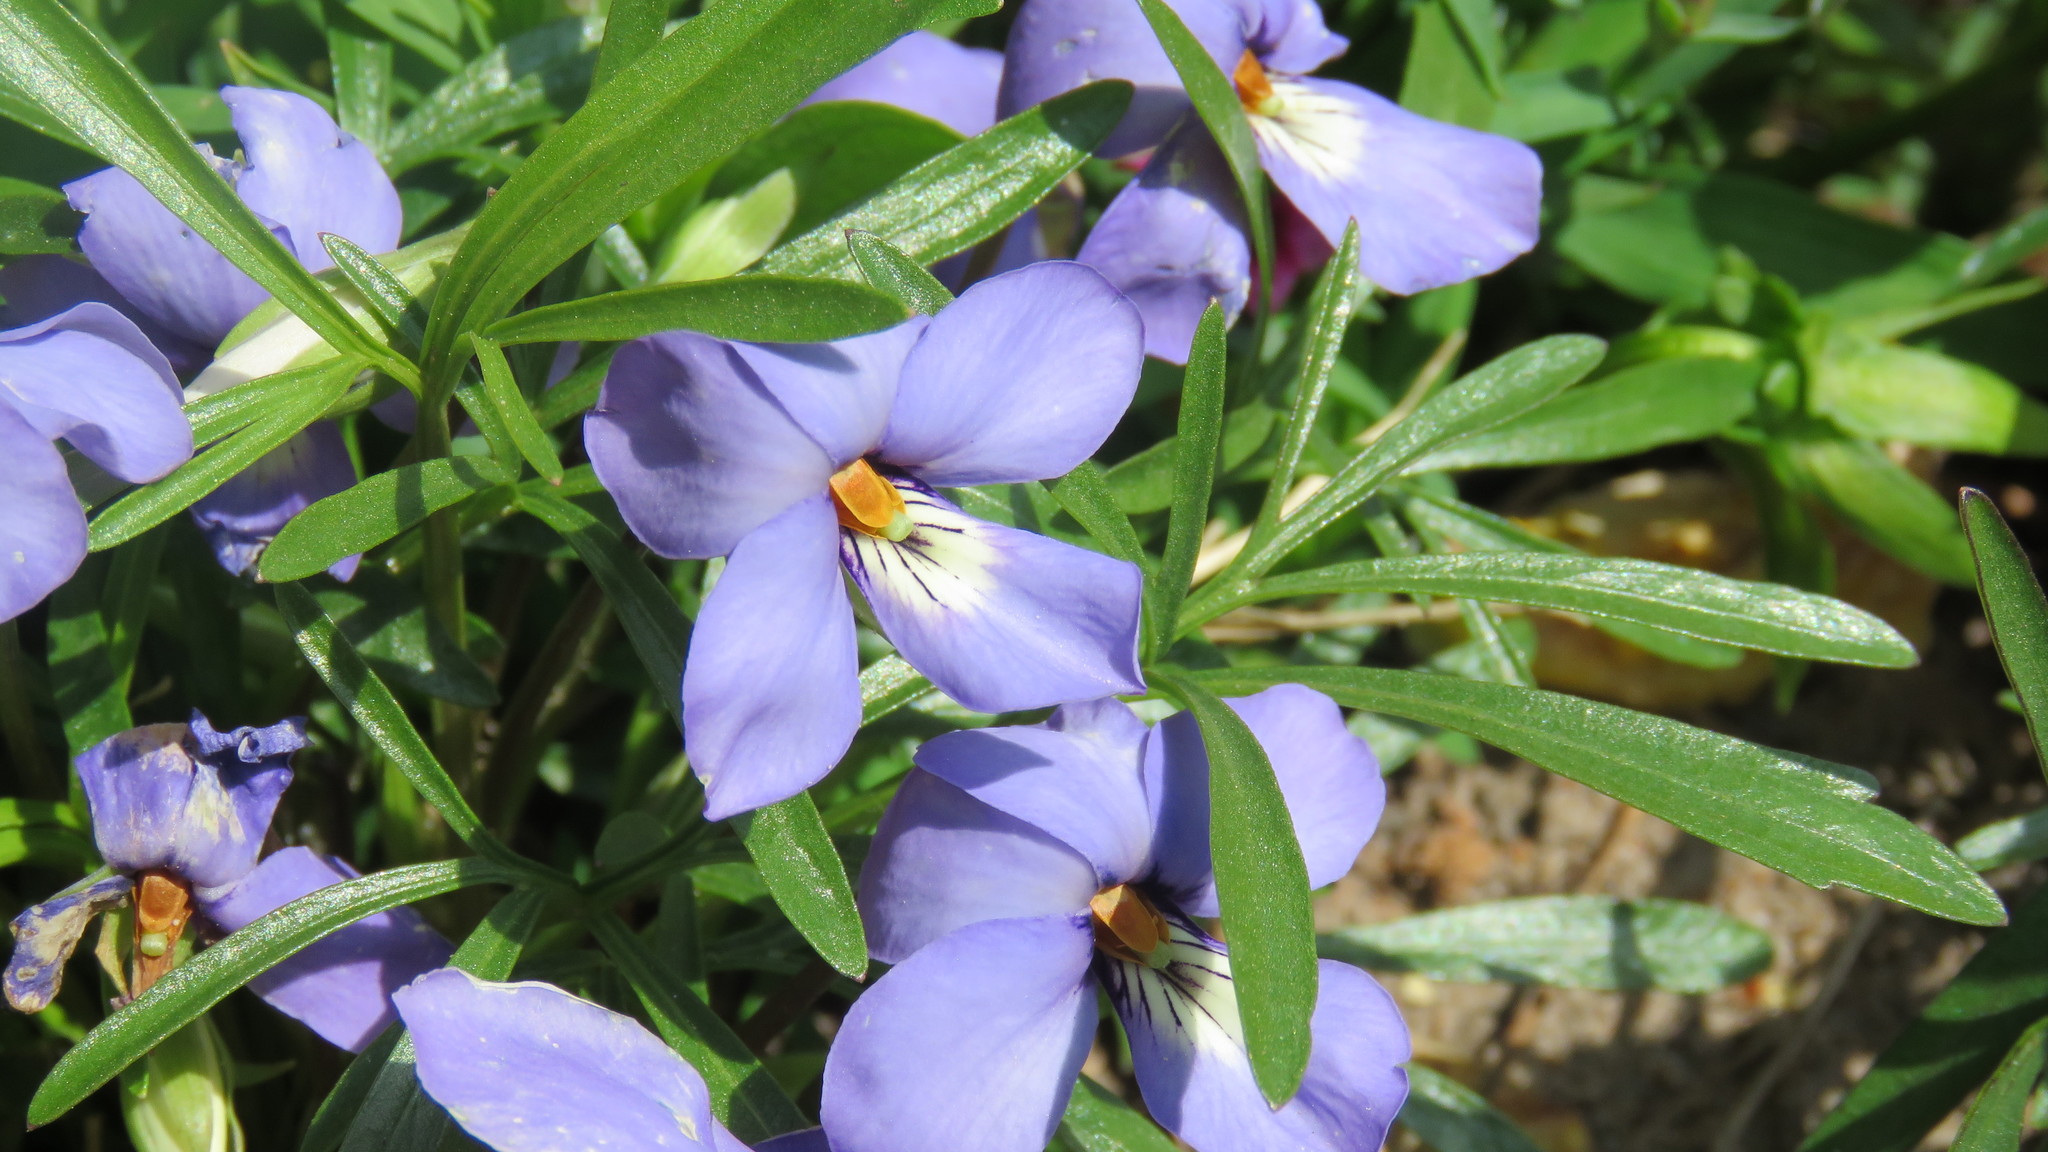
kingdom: Plantae
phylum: Tracheophyta
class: Magnoliopsida
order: Malpighiales
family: Violaceae
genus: Viola
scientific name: Viola pedata
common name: Pansy violet
